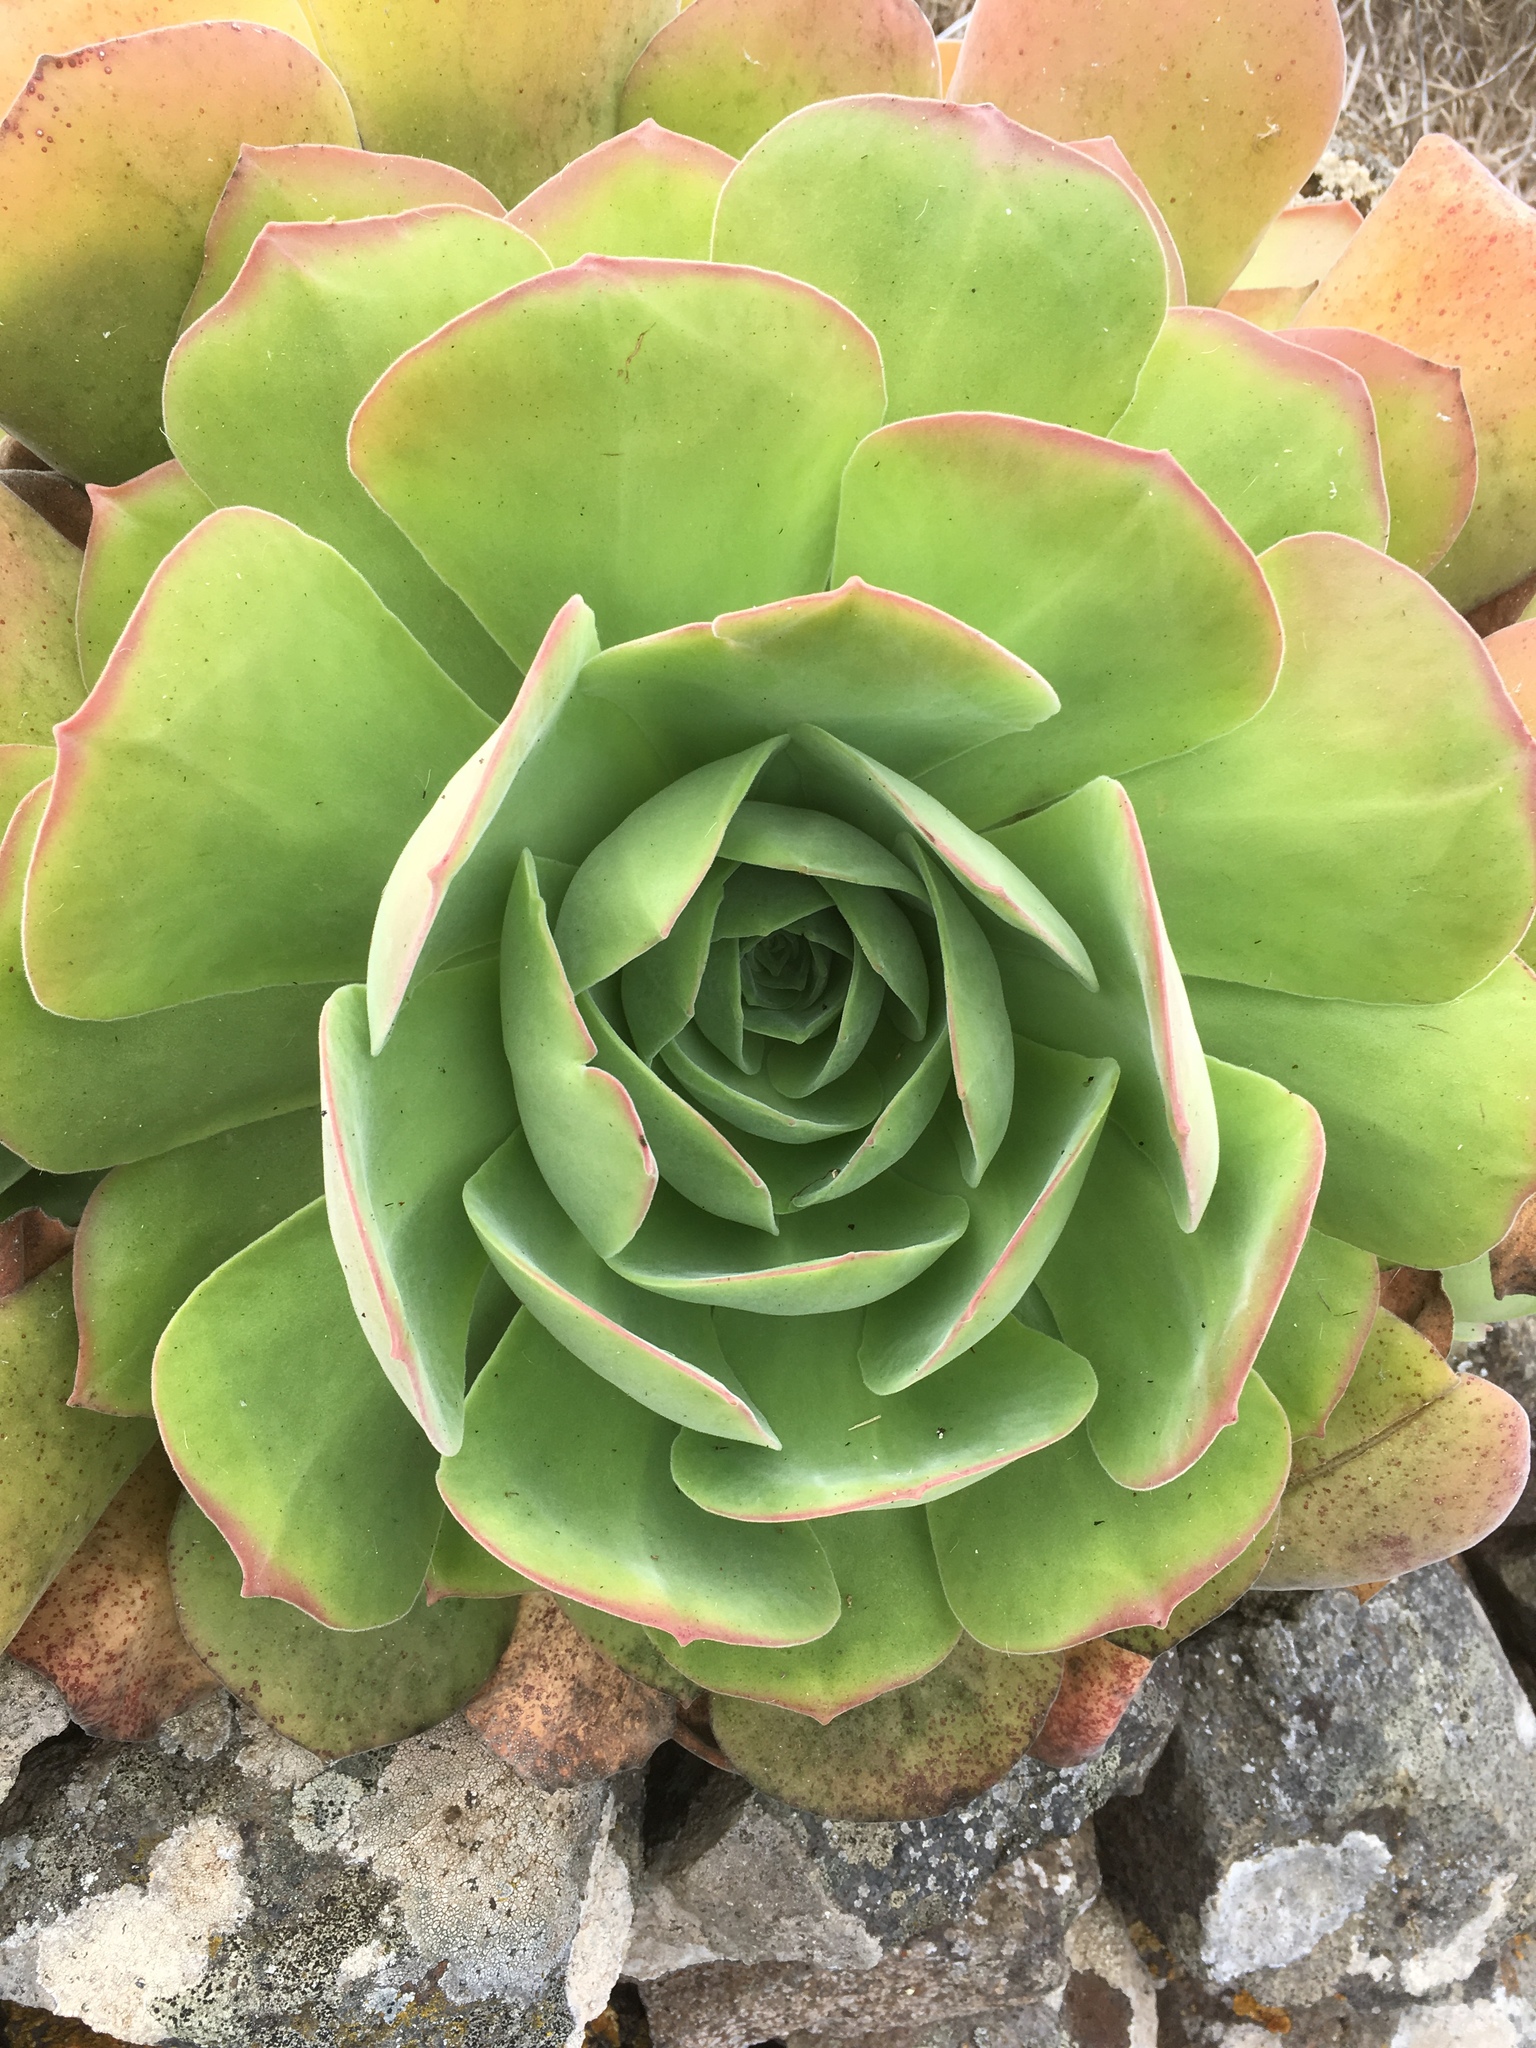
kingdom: Plantae
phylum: Tracheophyta
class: Magnoliopsida
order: Saxifragales
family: Crassulaceae
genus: Aeonium
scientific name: Aeonium canariense
